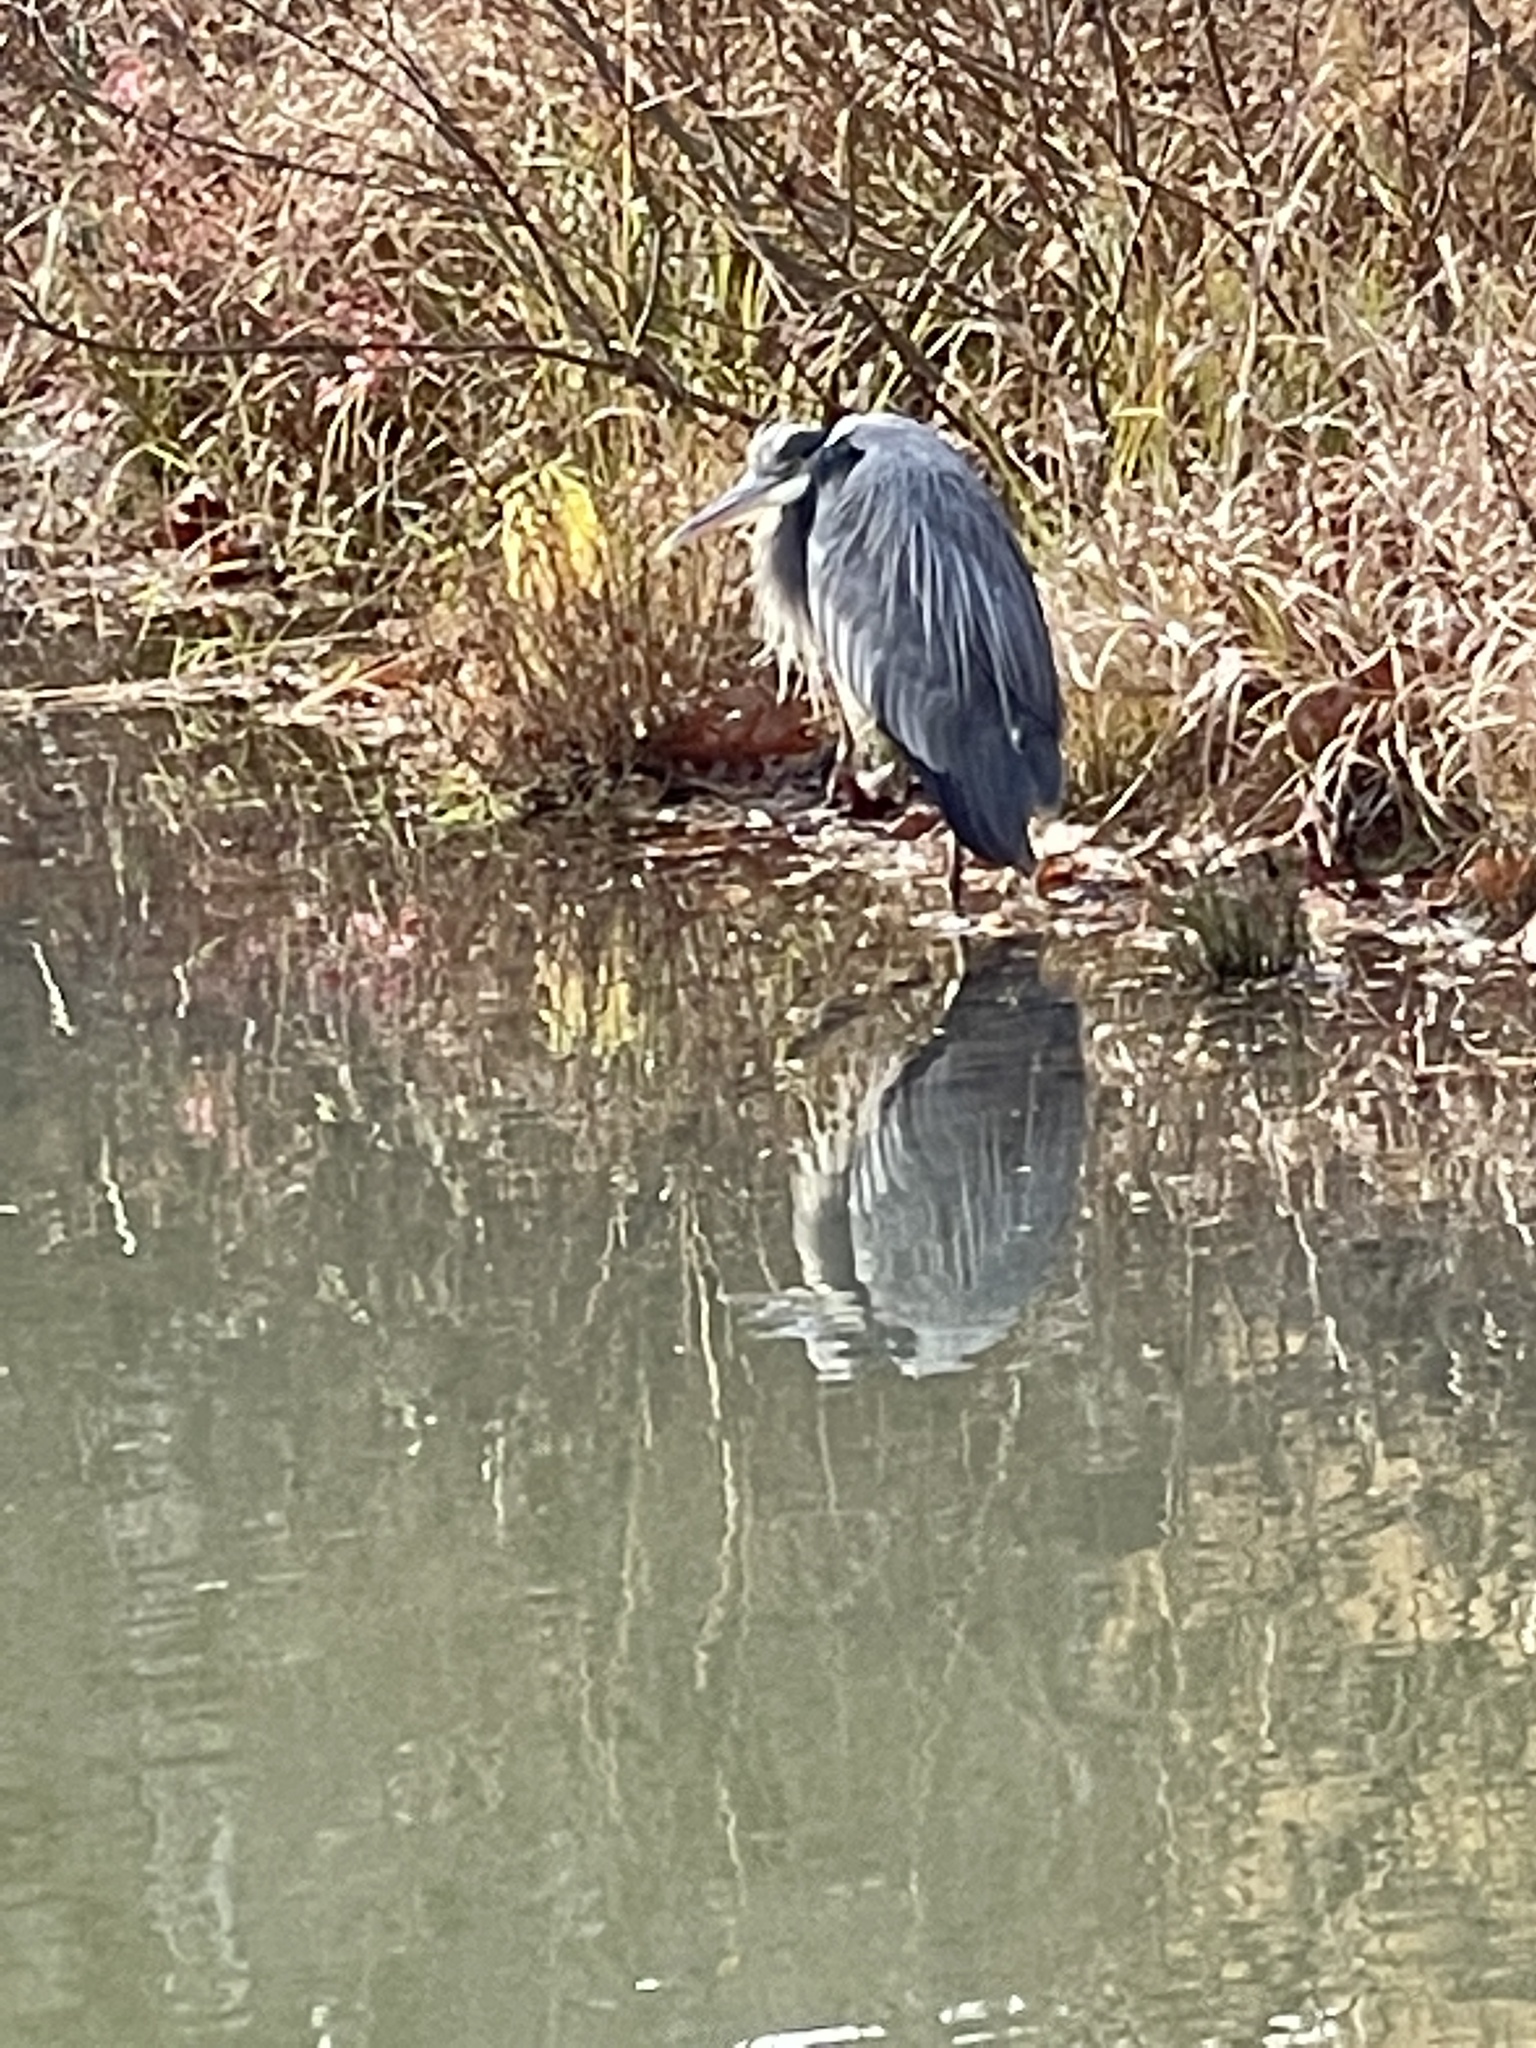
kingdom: Animalia
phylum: Chordata
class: Aves
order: Pelecaniformes
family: Ardeidae
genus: Ardea
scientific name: Ardea herodias
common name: Great blue heron
